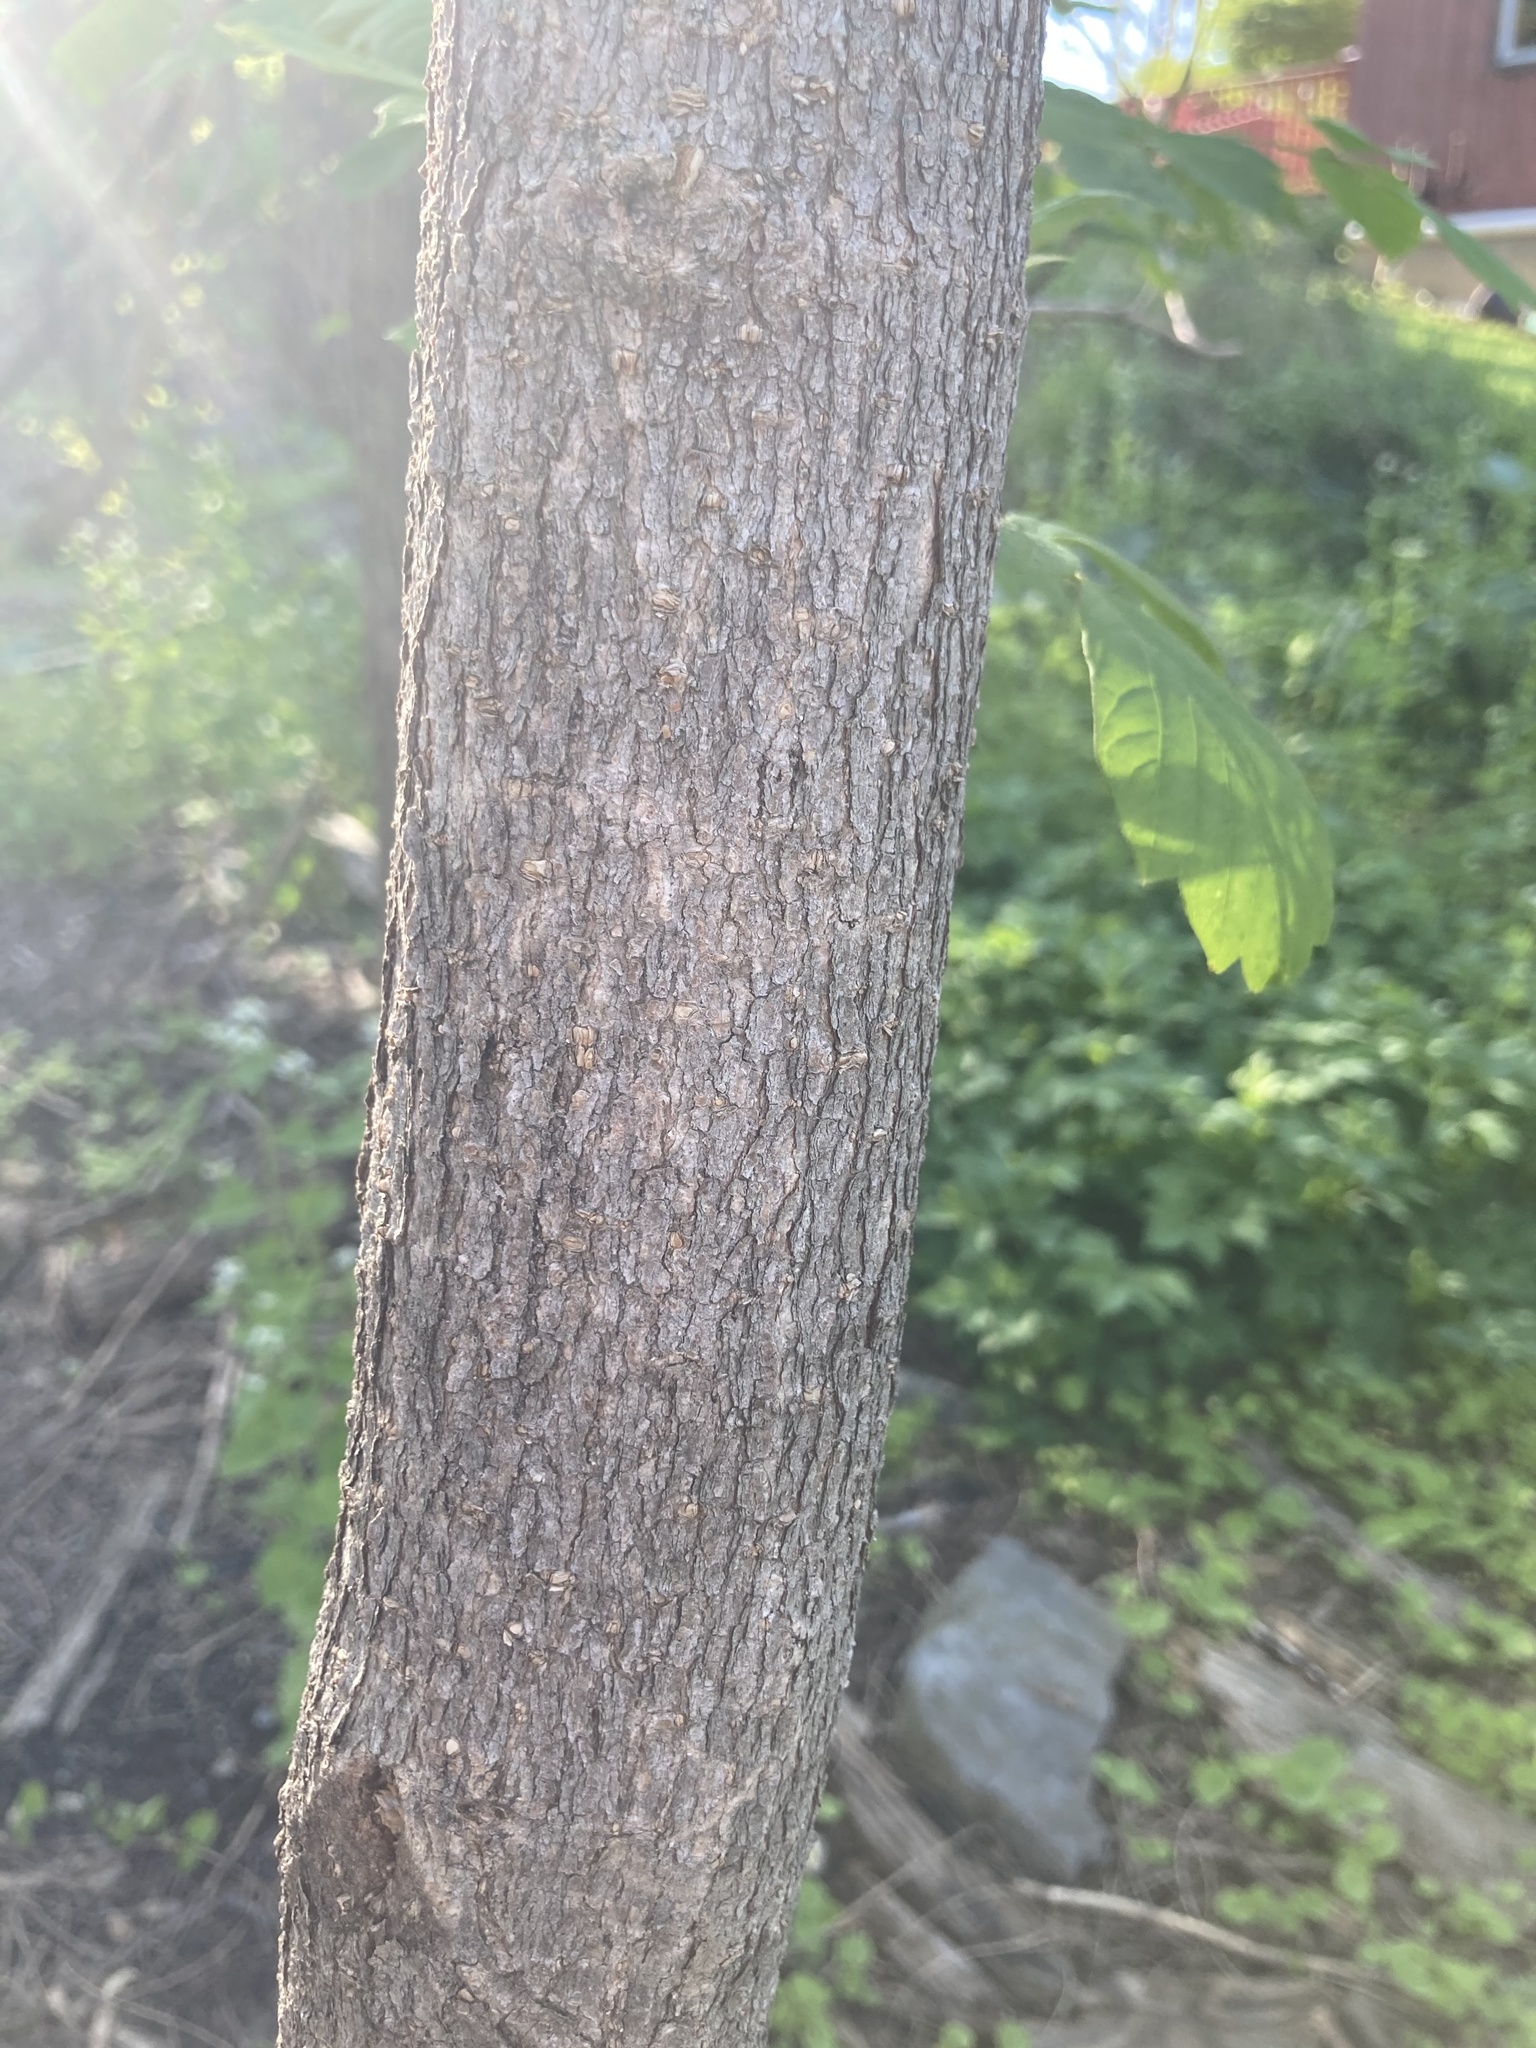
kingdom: Plantae
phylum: Tracheophyta
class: Magnoliopsida
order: Sapindales
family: Sapindaceae
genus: Acer
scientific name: Acer negundo
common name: Ashleaf maple
